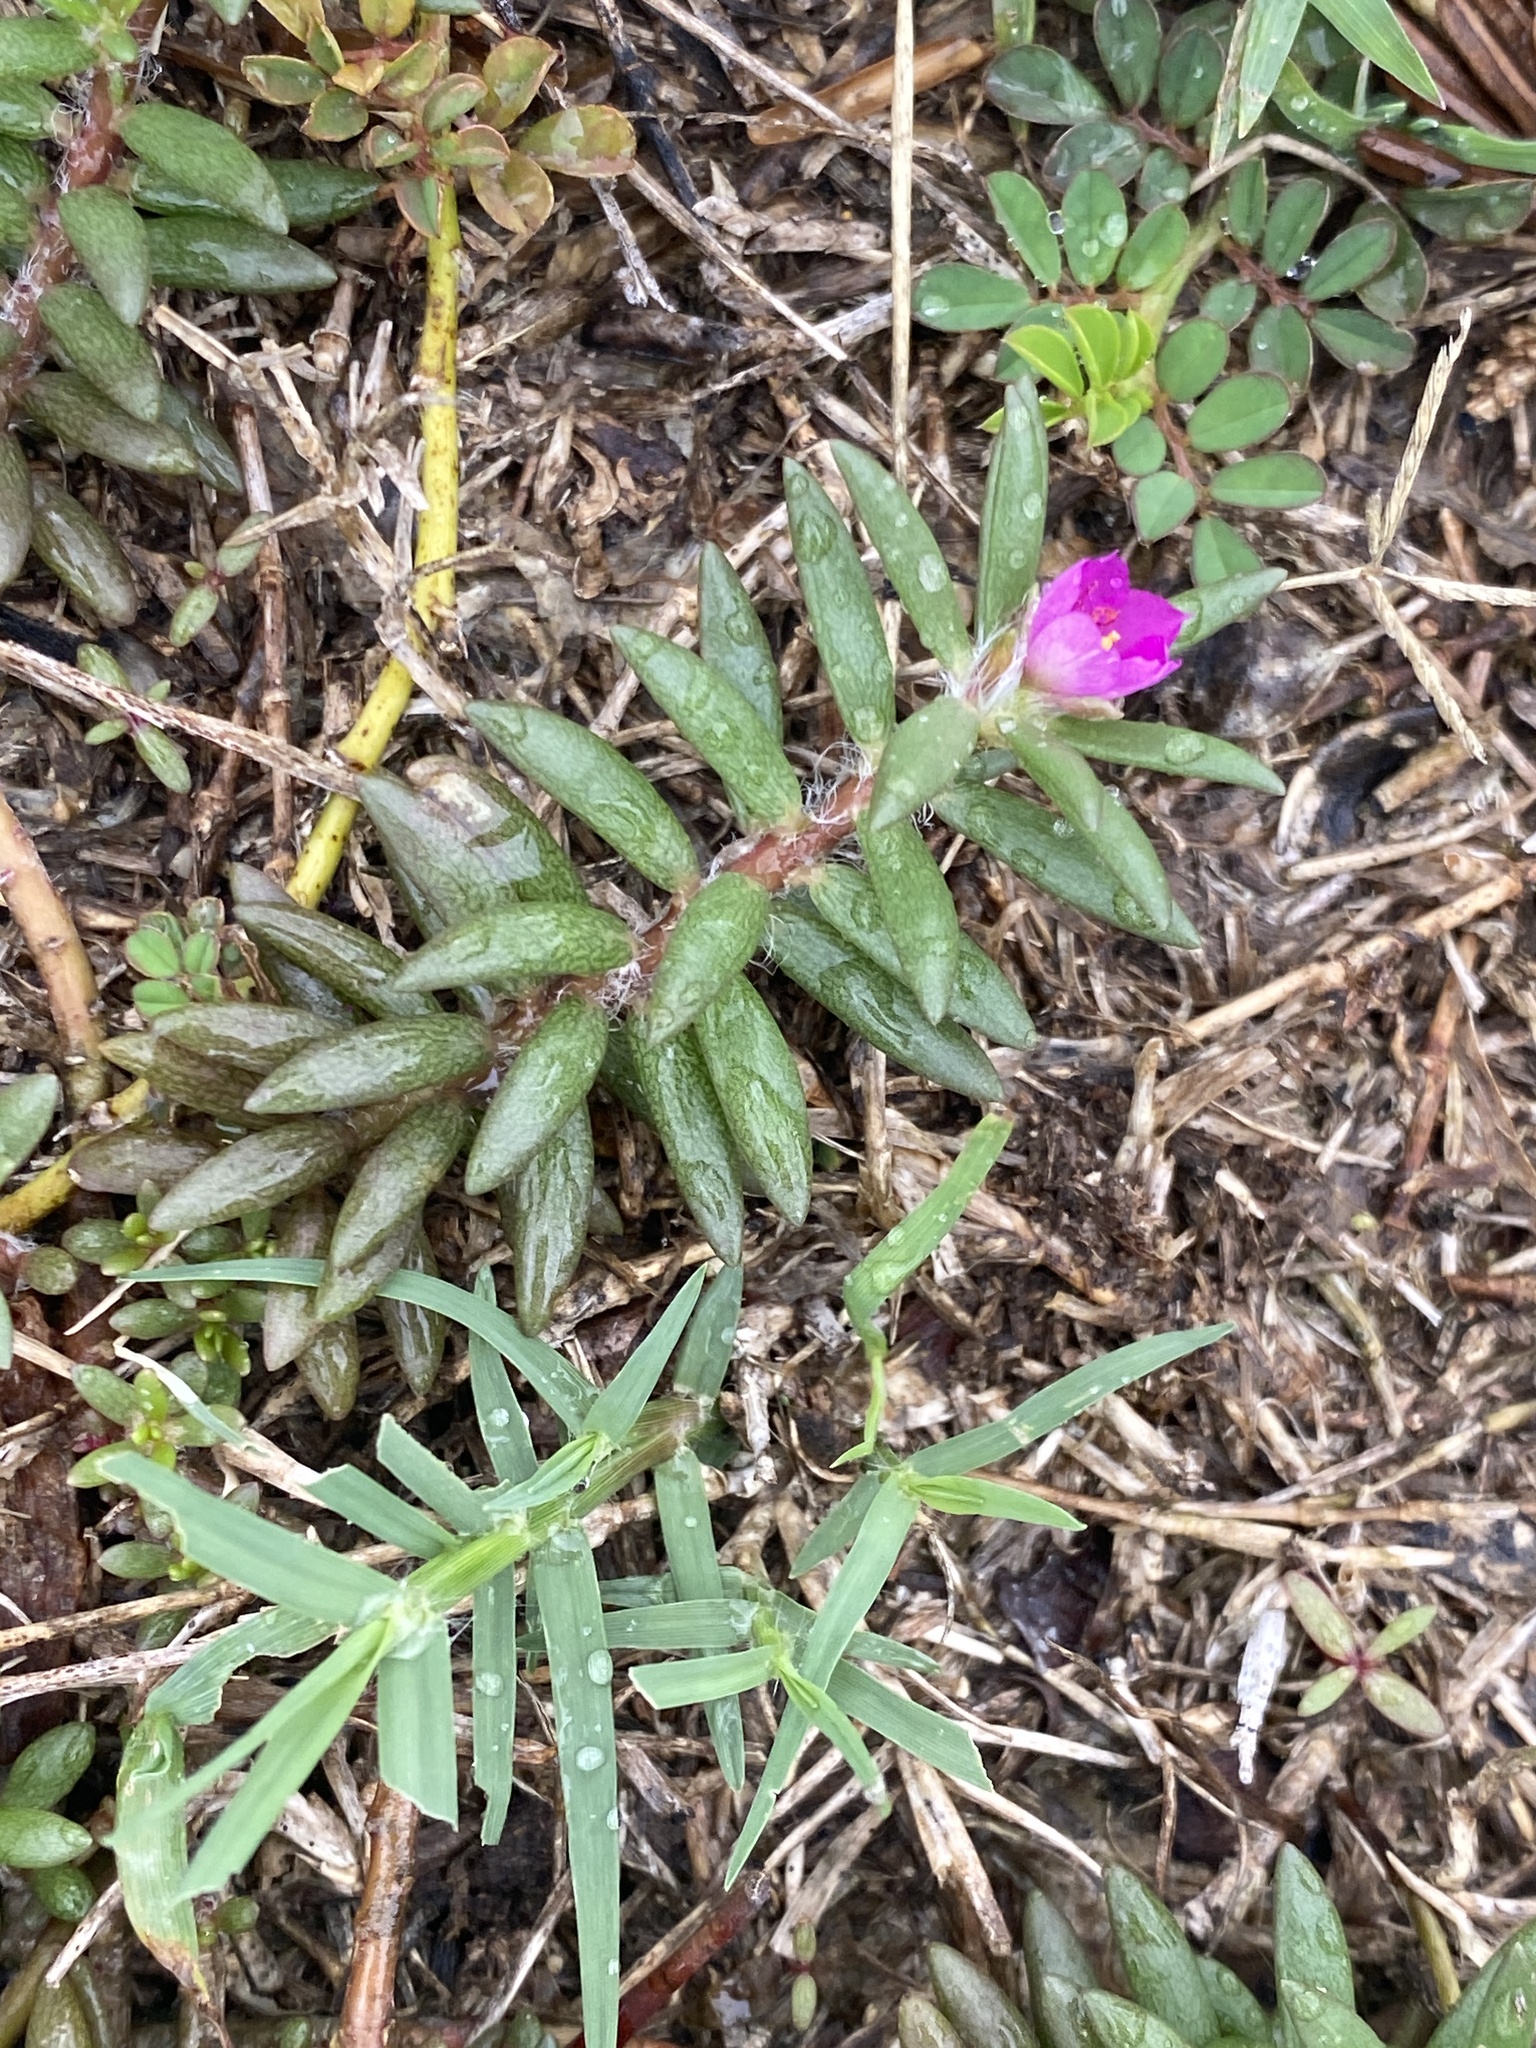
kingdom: Plantae
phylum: Tracheophyta
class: Magnoliopsida
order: Caryophyllales
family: Portulacaceae
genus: Portulaca
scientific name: Portulaca pilosa
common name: Kiss me quick
